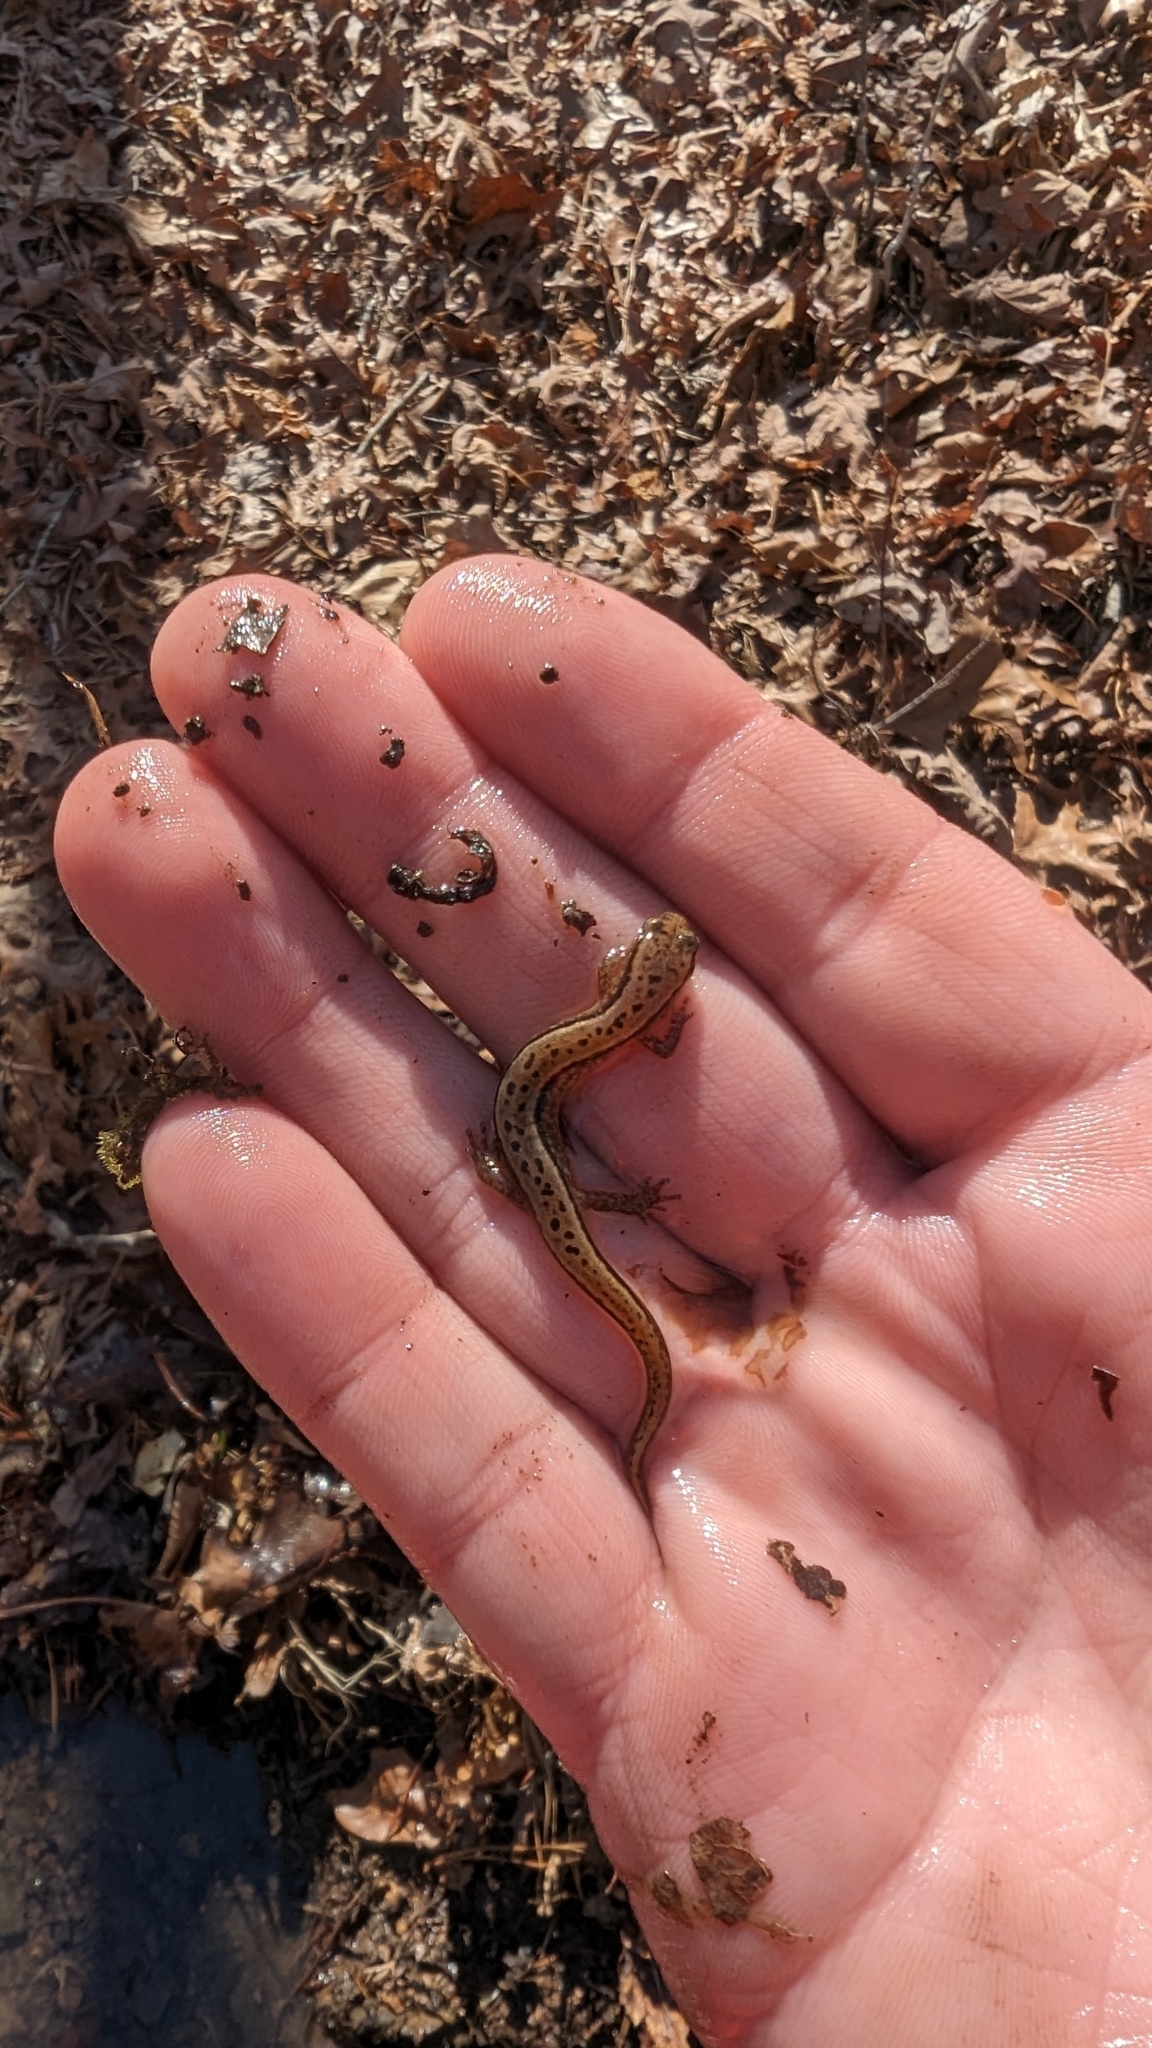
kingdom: Animalia
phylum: Chordata
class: Amphibia
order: Caudata
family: Plethodontidae
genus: Eurycea
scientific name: Eurycea cirrigera
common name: Southern two-lined salamander
